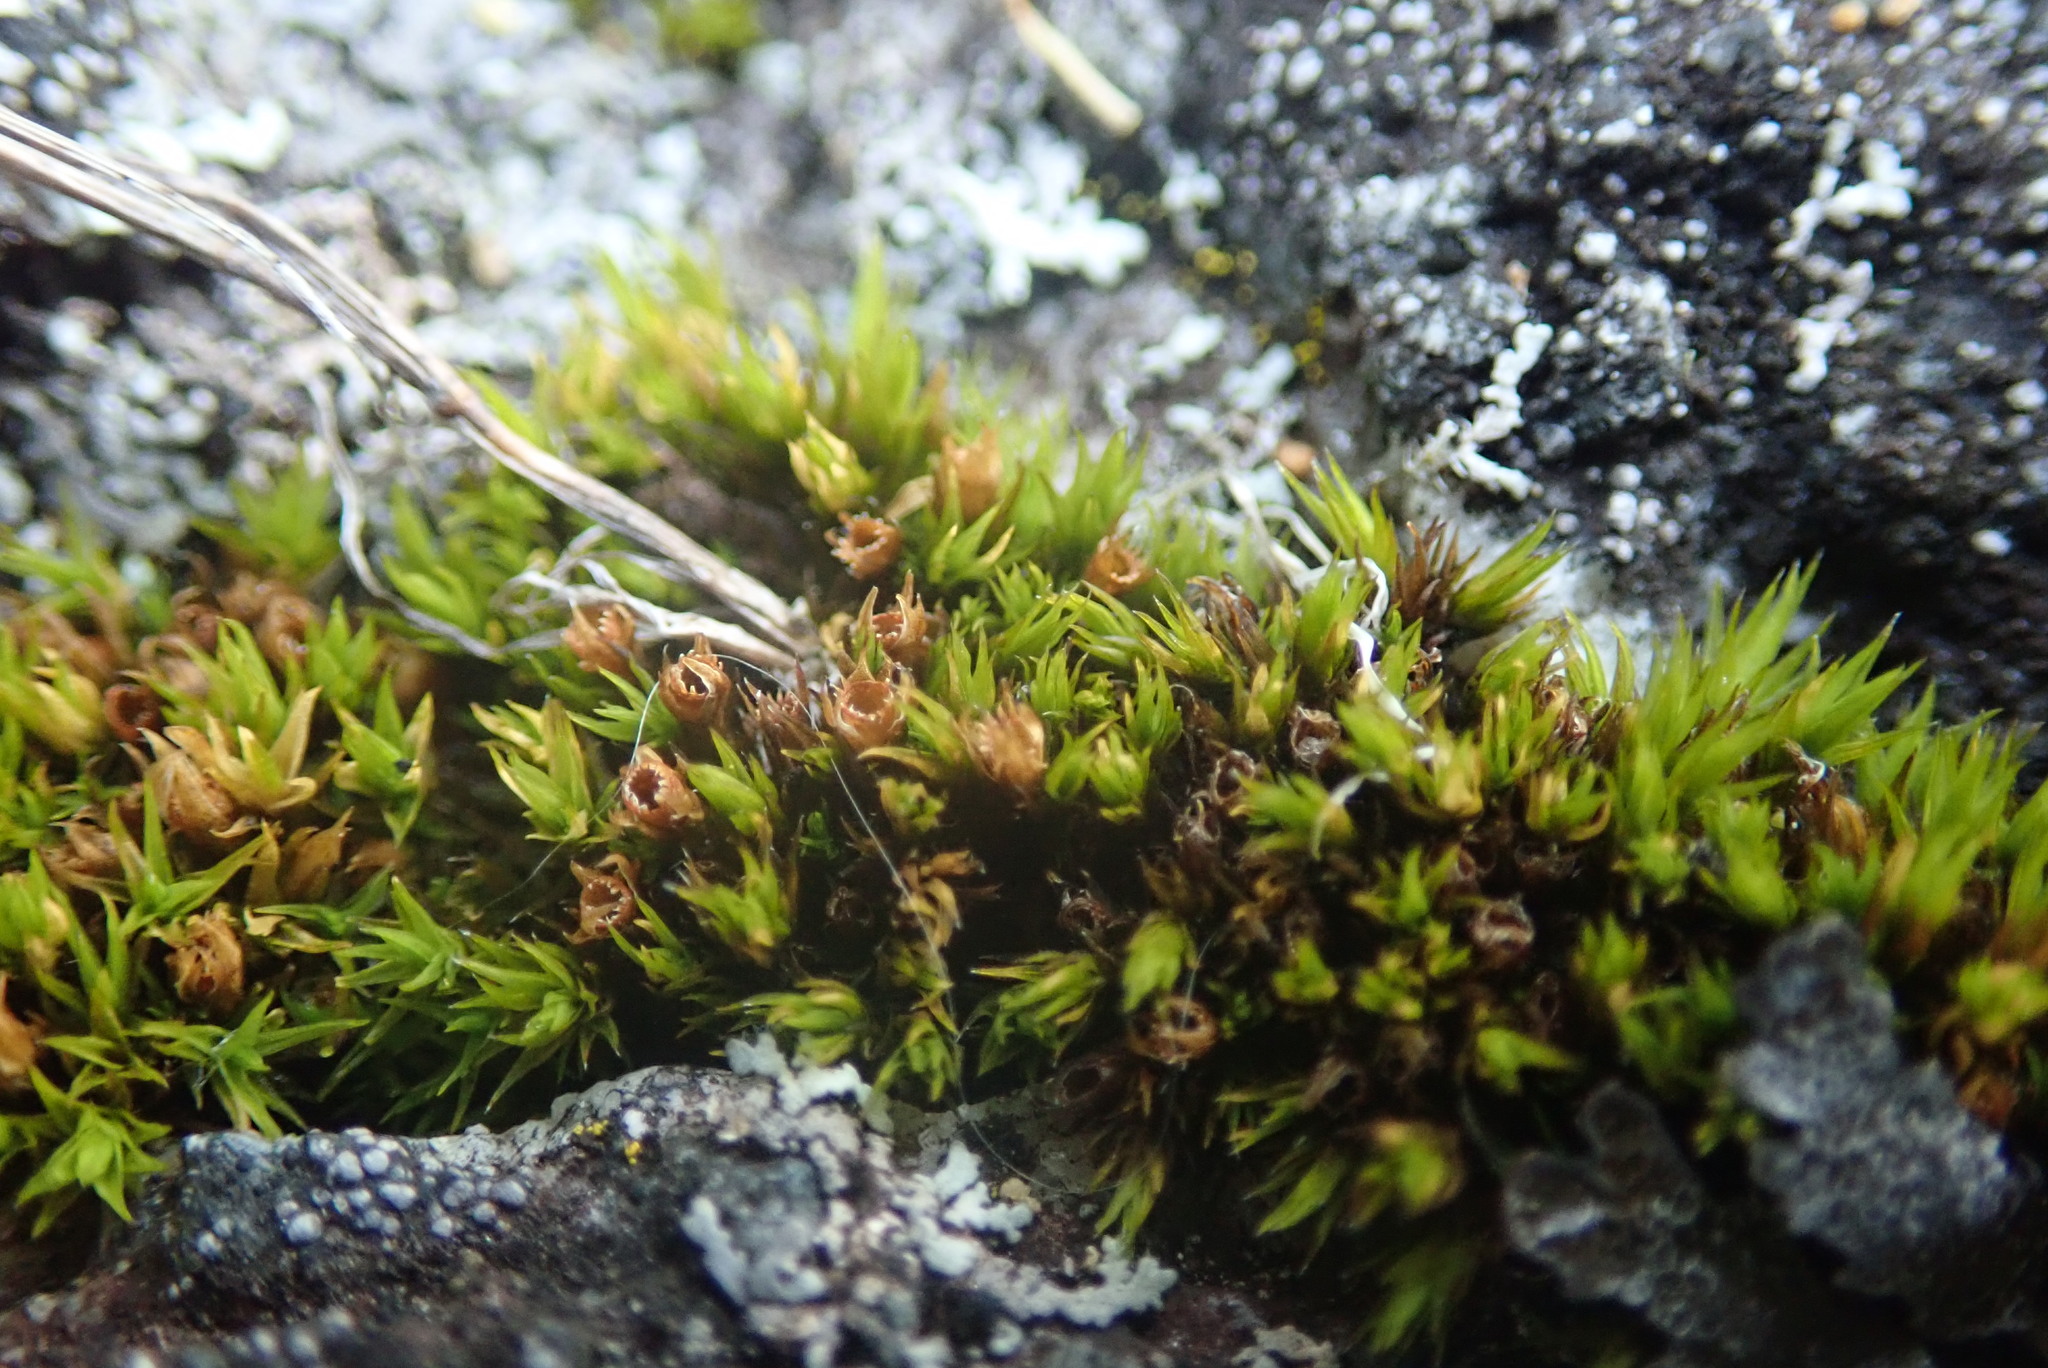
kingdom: Plantae
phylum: Bryophyta
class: Bryopsida
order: Grimmiales
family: Grimmiaceae
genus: Schistidium
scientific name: Schistidium maritimum
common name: Seaside bloom moss
